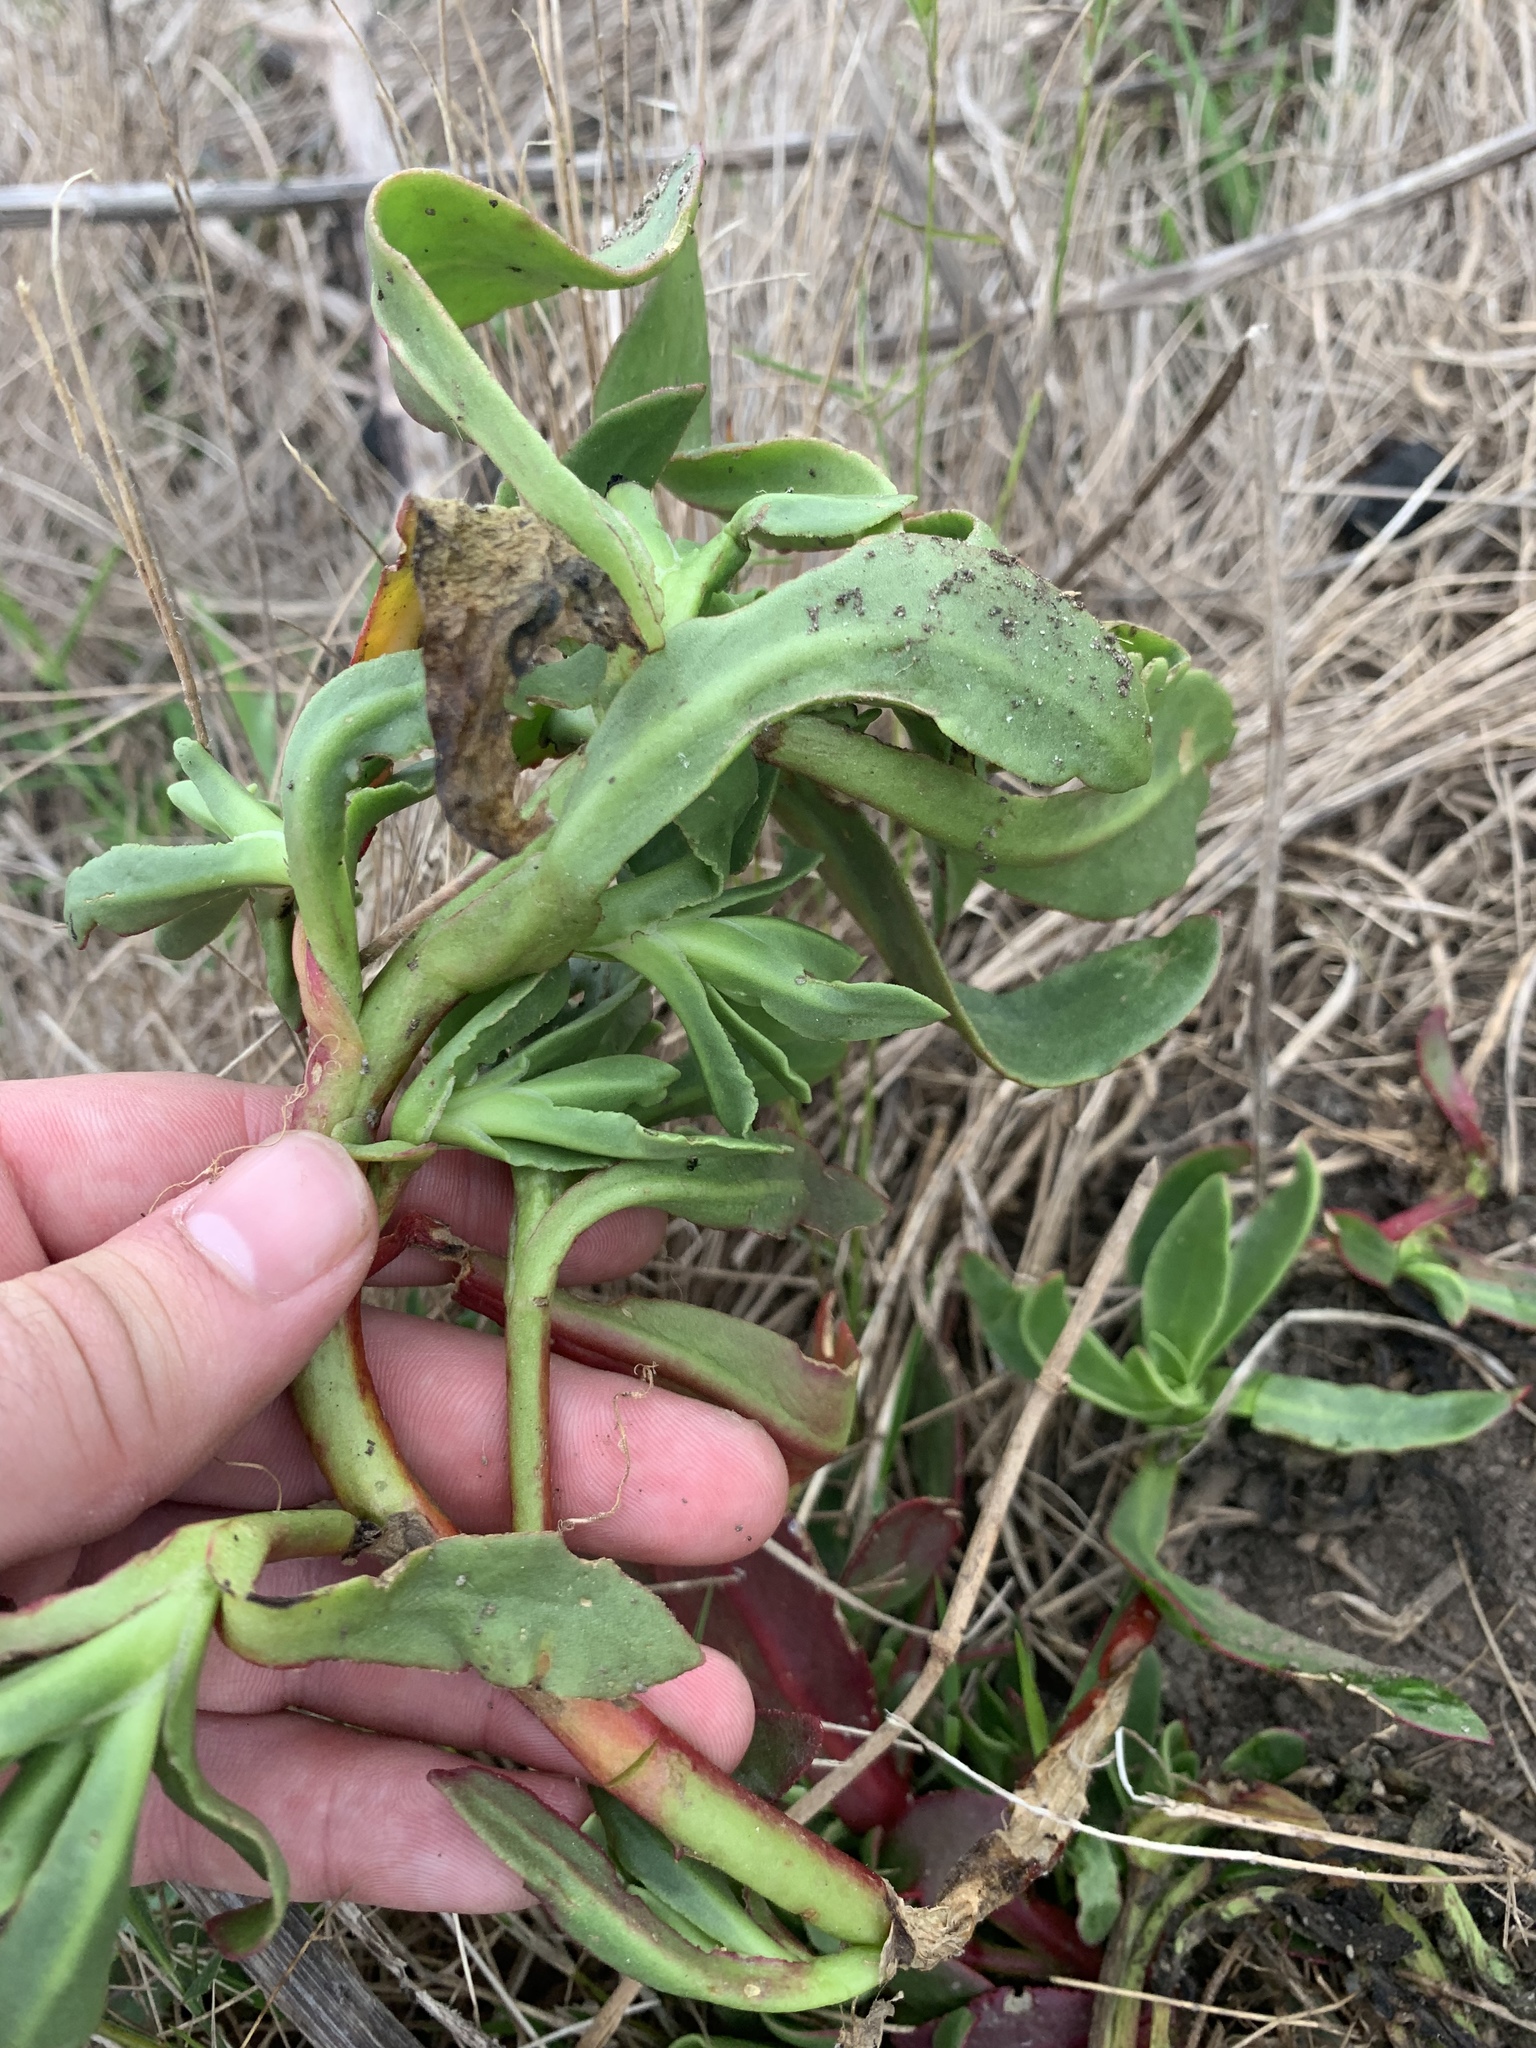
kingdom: Plantae
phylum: Tracheophyta
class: Magnoliopsida
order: Caryophyllales
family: Aizoaceae
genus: Skiatophytum
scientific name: Skiatophytum tripolium
